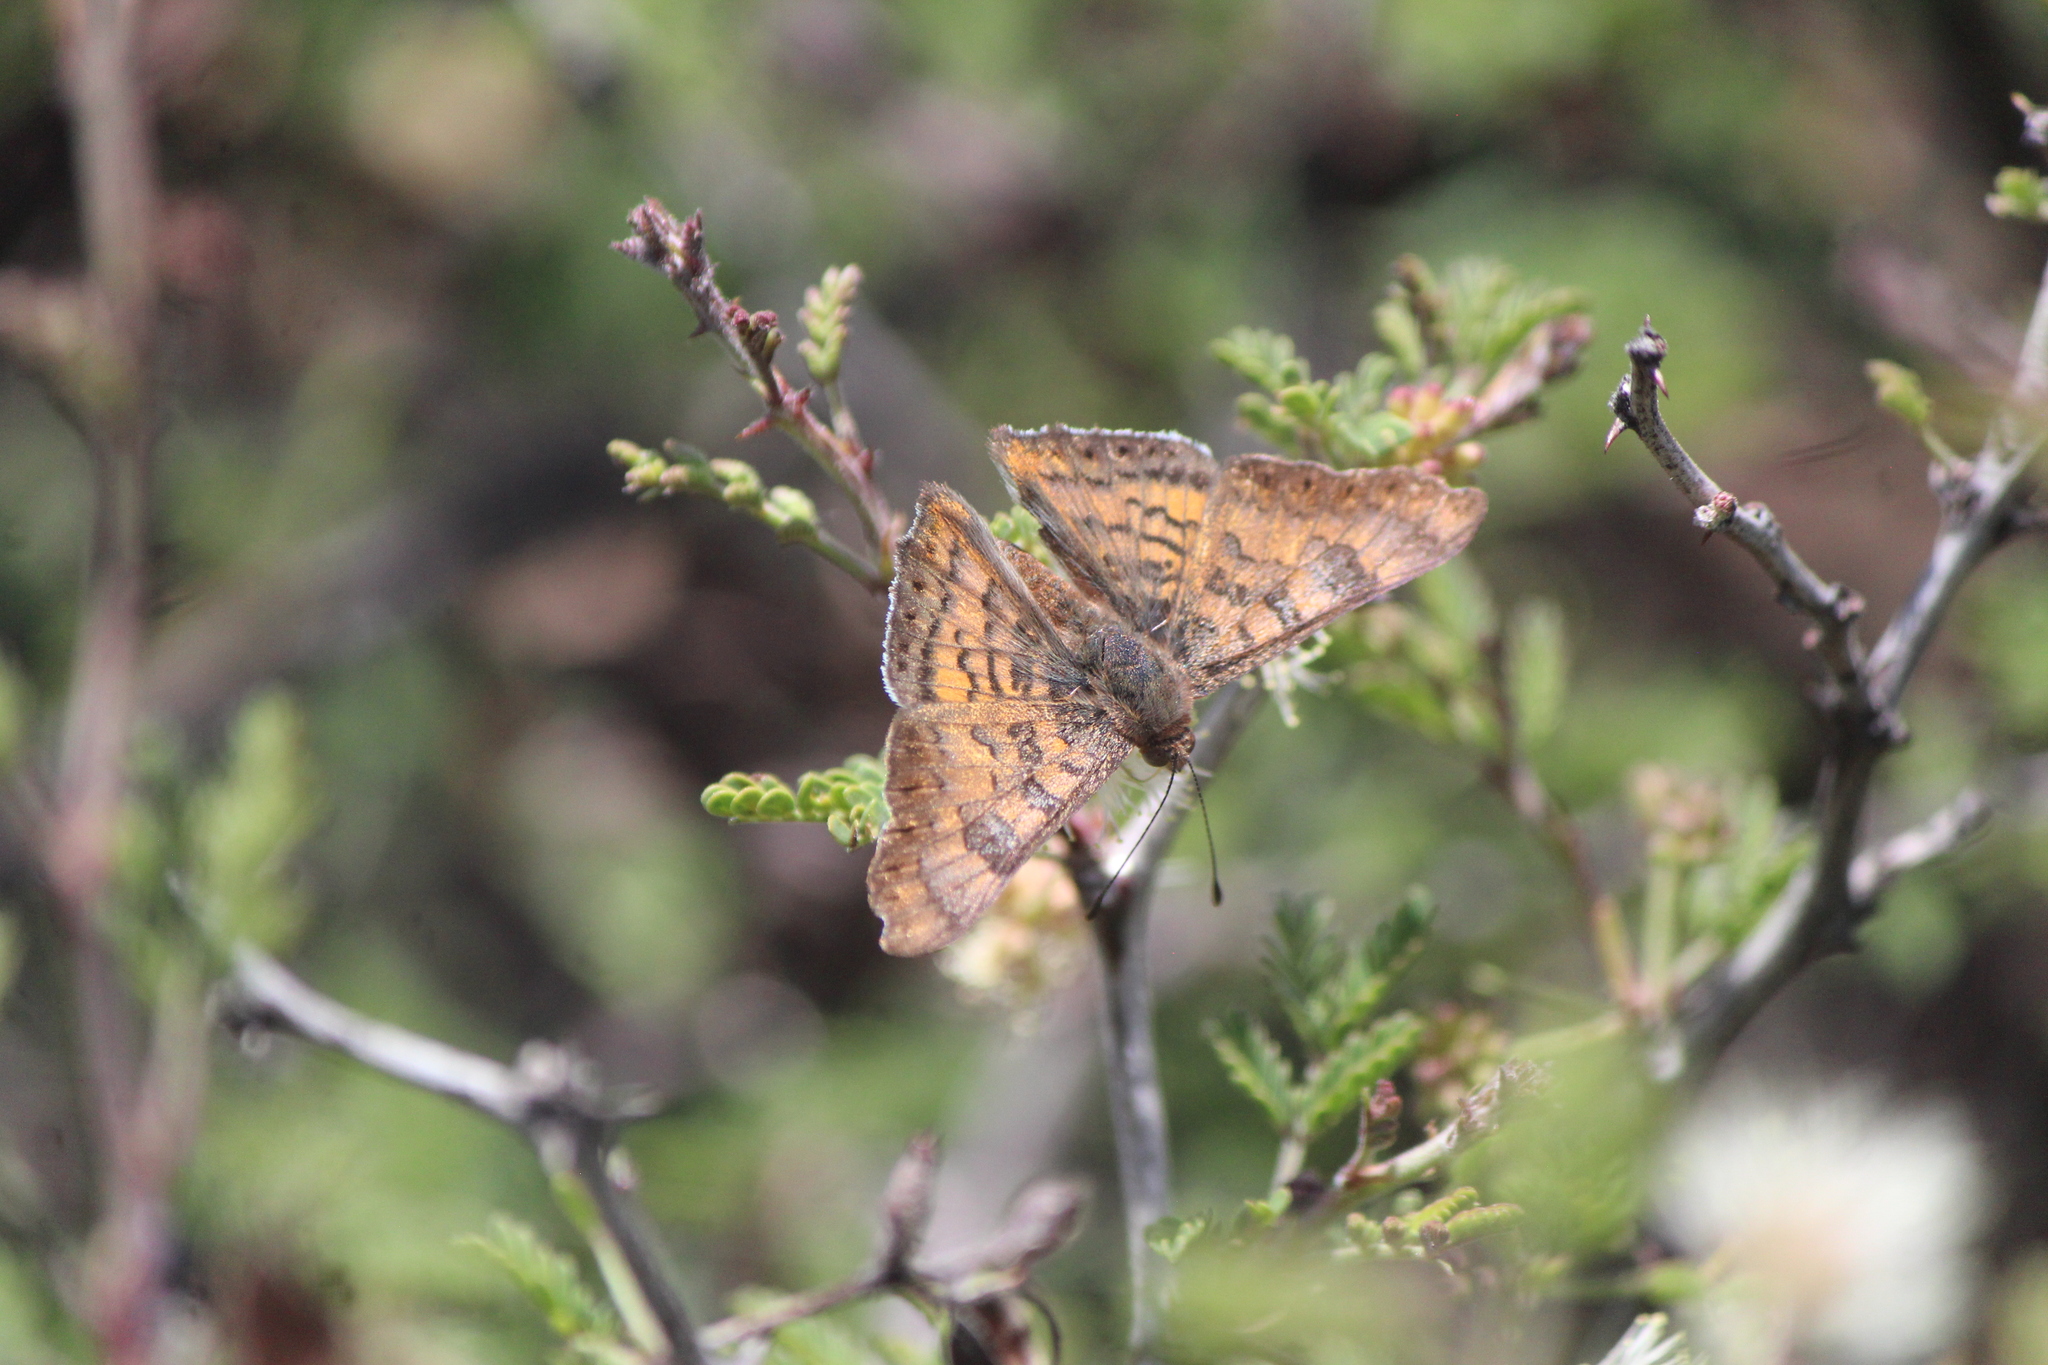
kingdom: Animalia
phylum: Arthropoda
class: Insecta
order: Lepidoptera
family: Riodinidae
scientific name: Riodinidae
